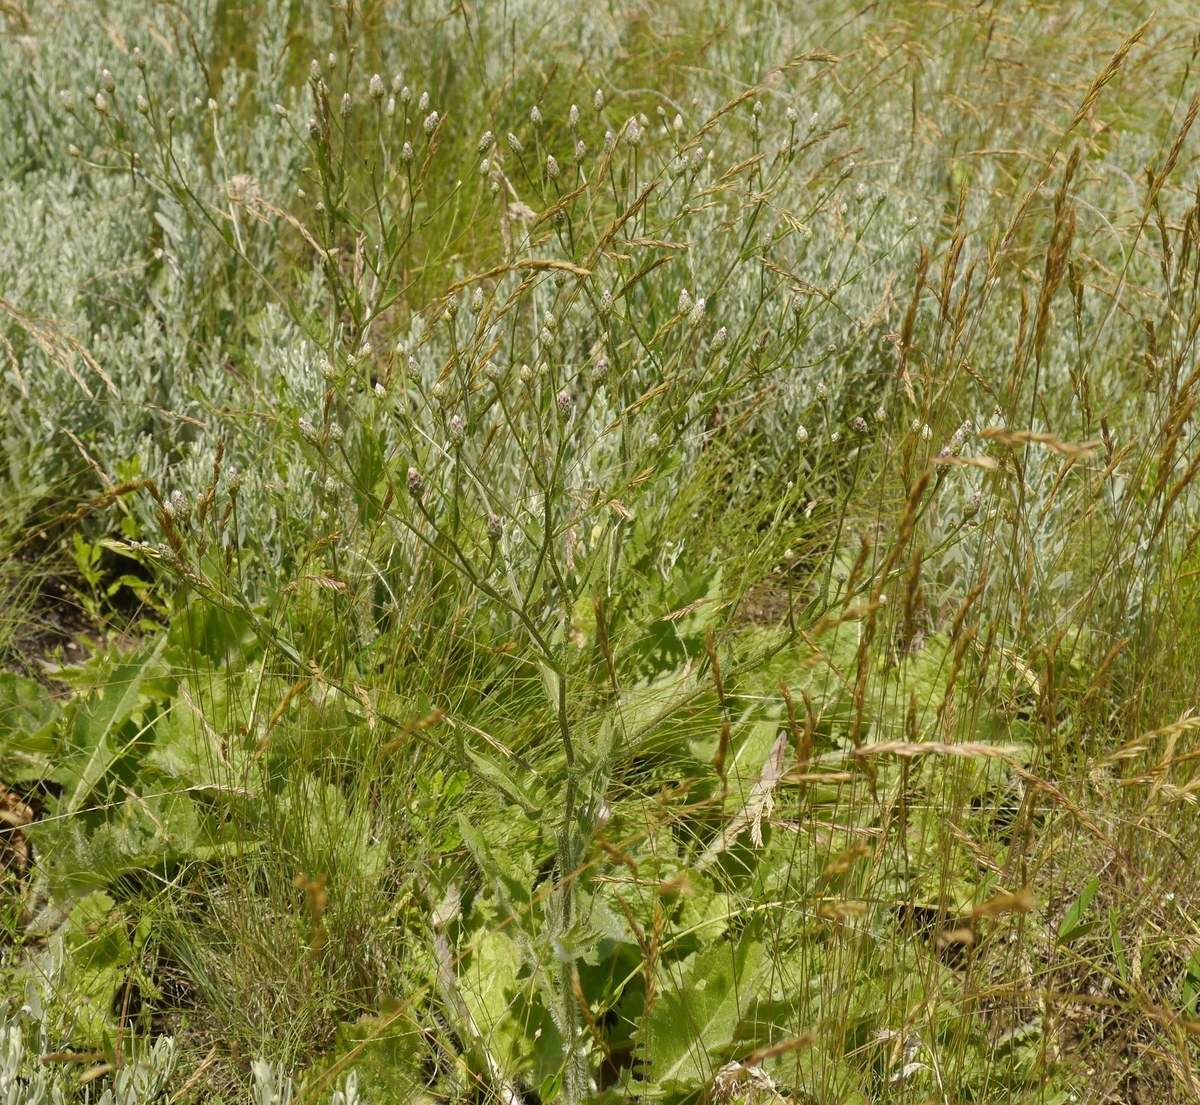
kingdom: Plantae
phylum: Tracheophyta
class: Magnoliopsida
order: Asterales
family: Asteraceae
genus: Klasea
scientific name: Klasea erucifolia
